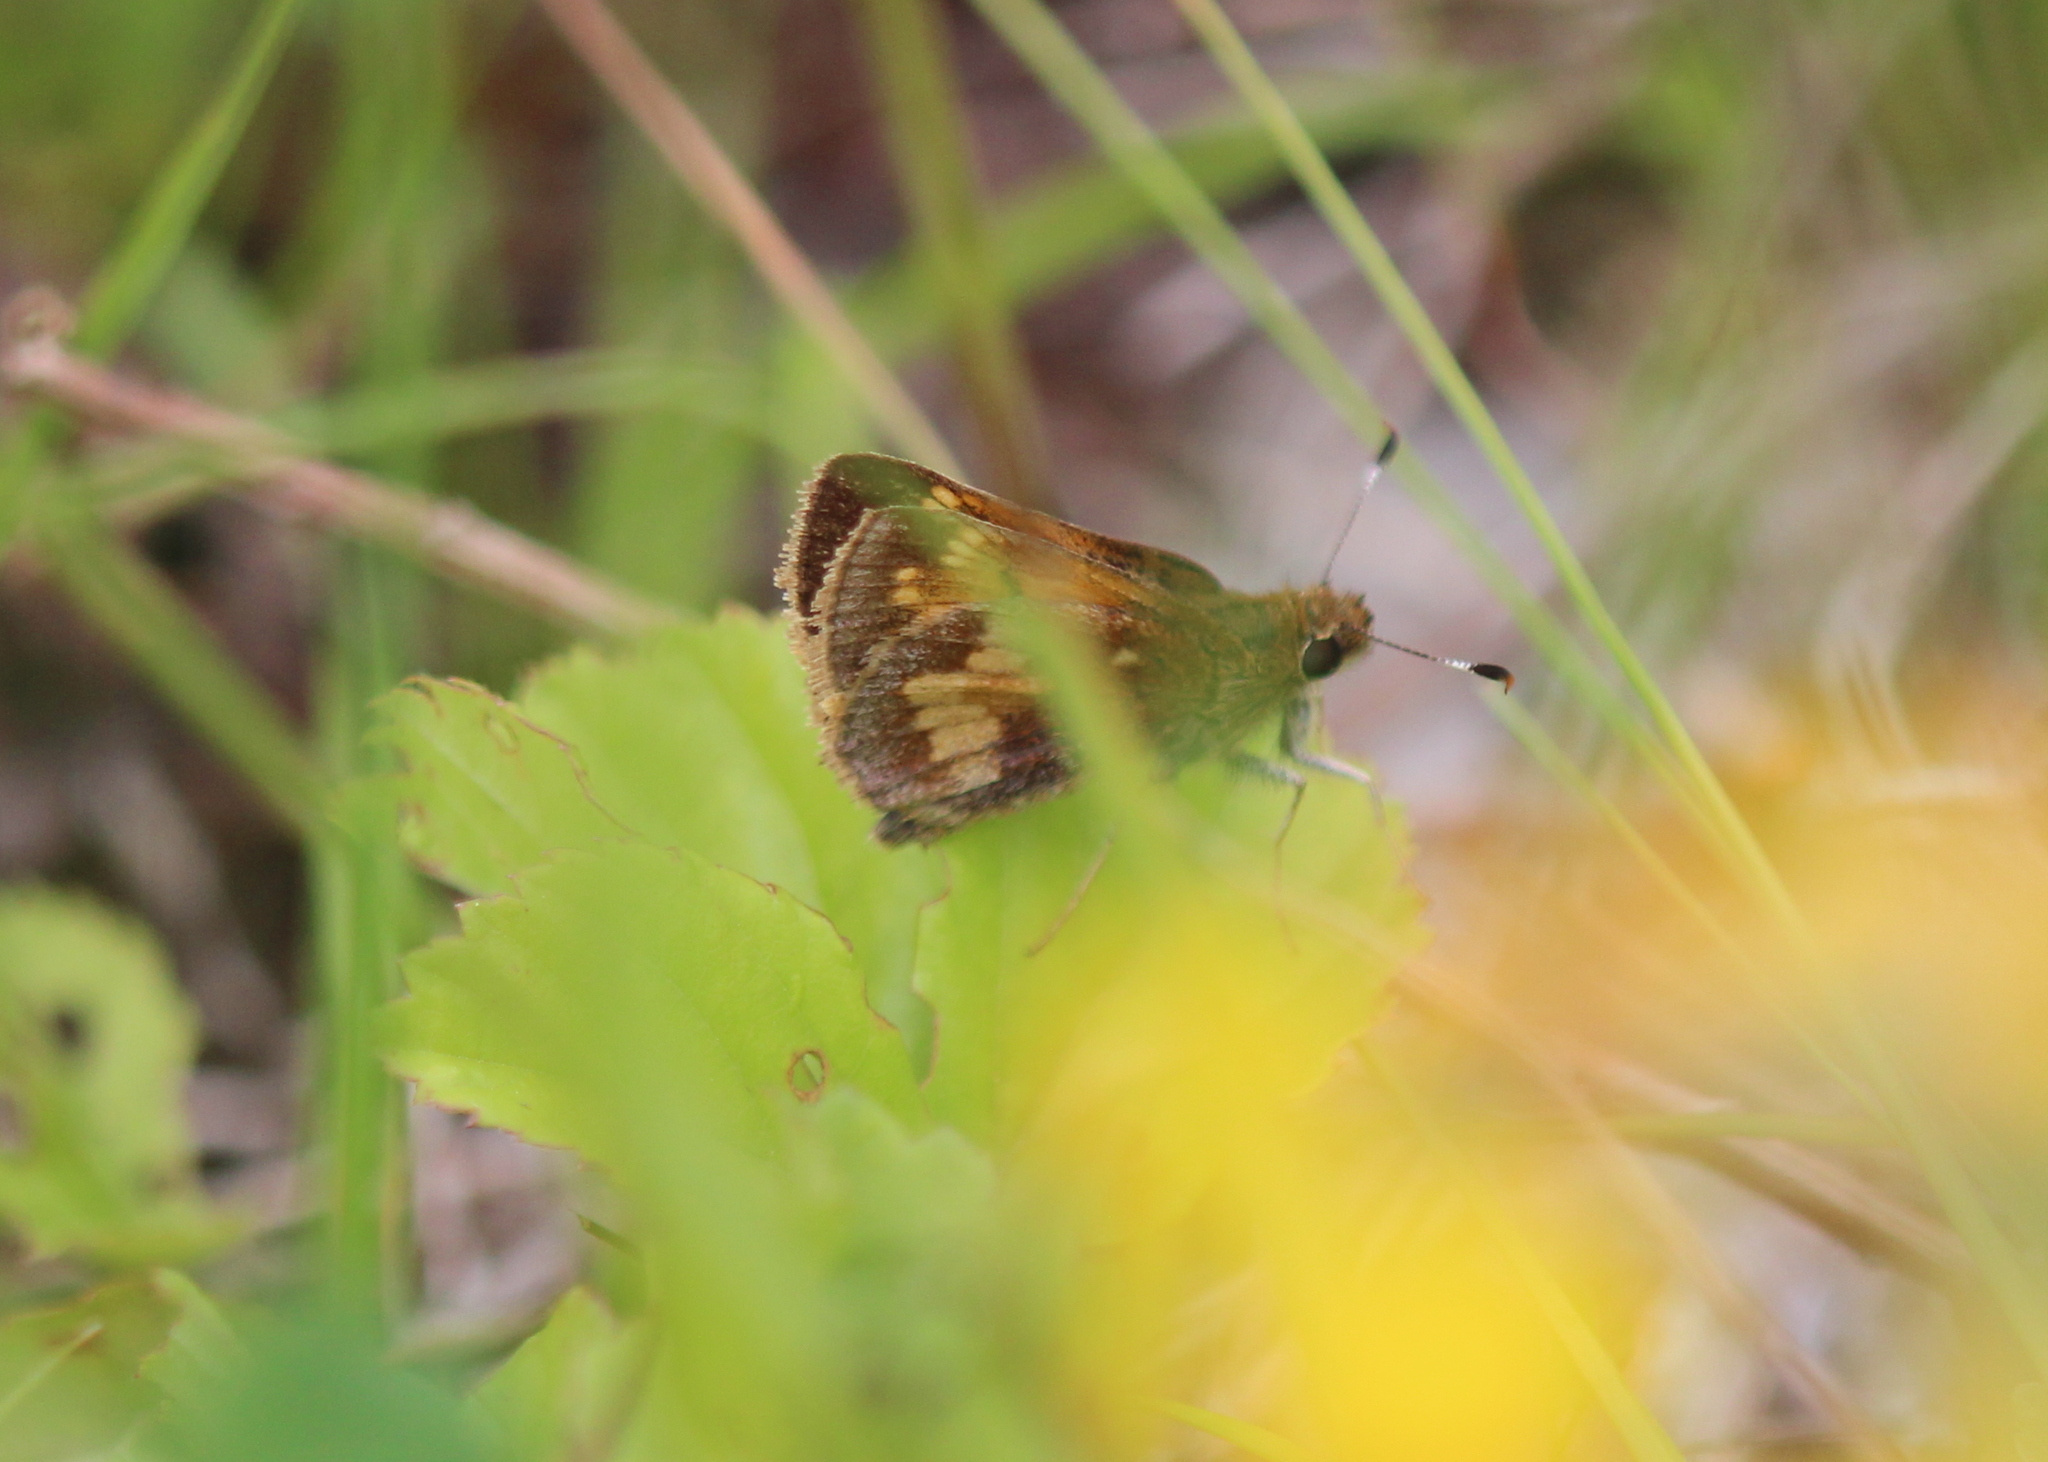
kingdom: Animalia
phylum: Arthropoda
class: Insecta
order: Lepidoptera
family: Hesperiidae
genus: Lon
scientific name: Lon hobomok
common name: Hobomok skipper
